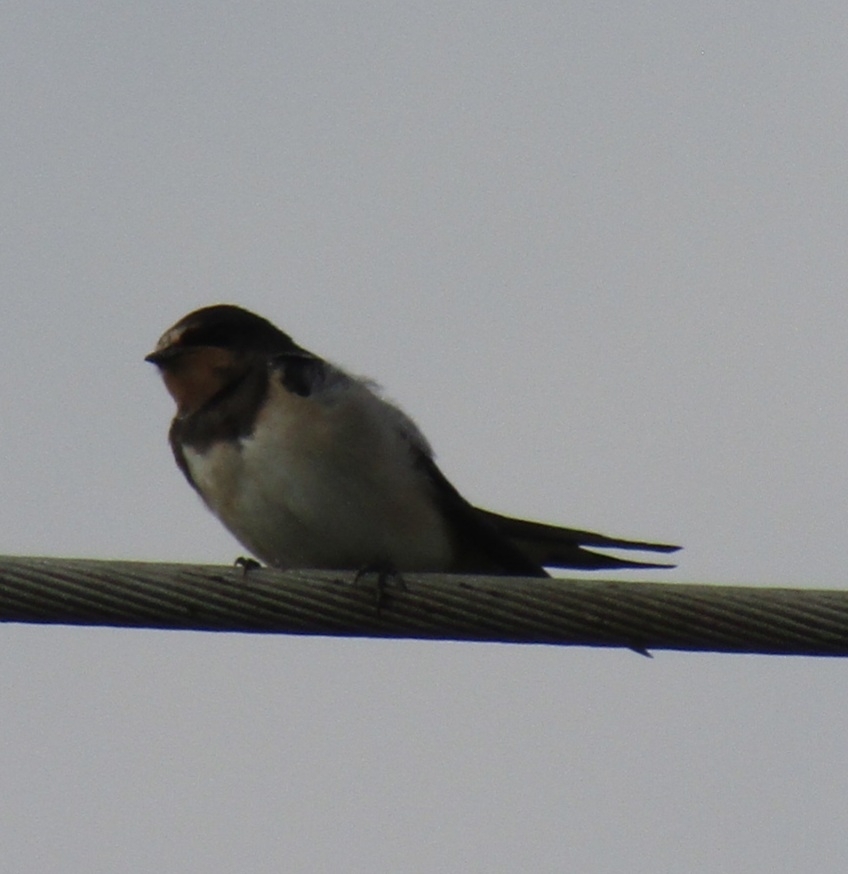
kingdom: Animalia
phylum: Chordata
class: Aves
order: Passeriformes
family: Hirundinidae
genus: Hirundo
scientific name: Hirundo rustica
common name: Barn swallow
